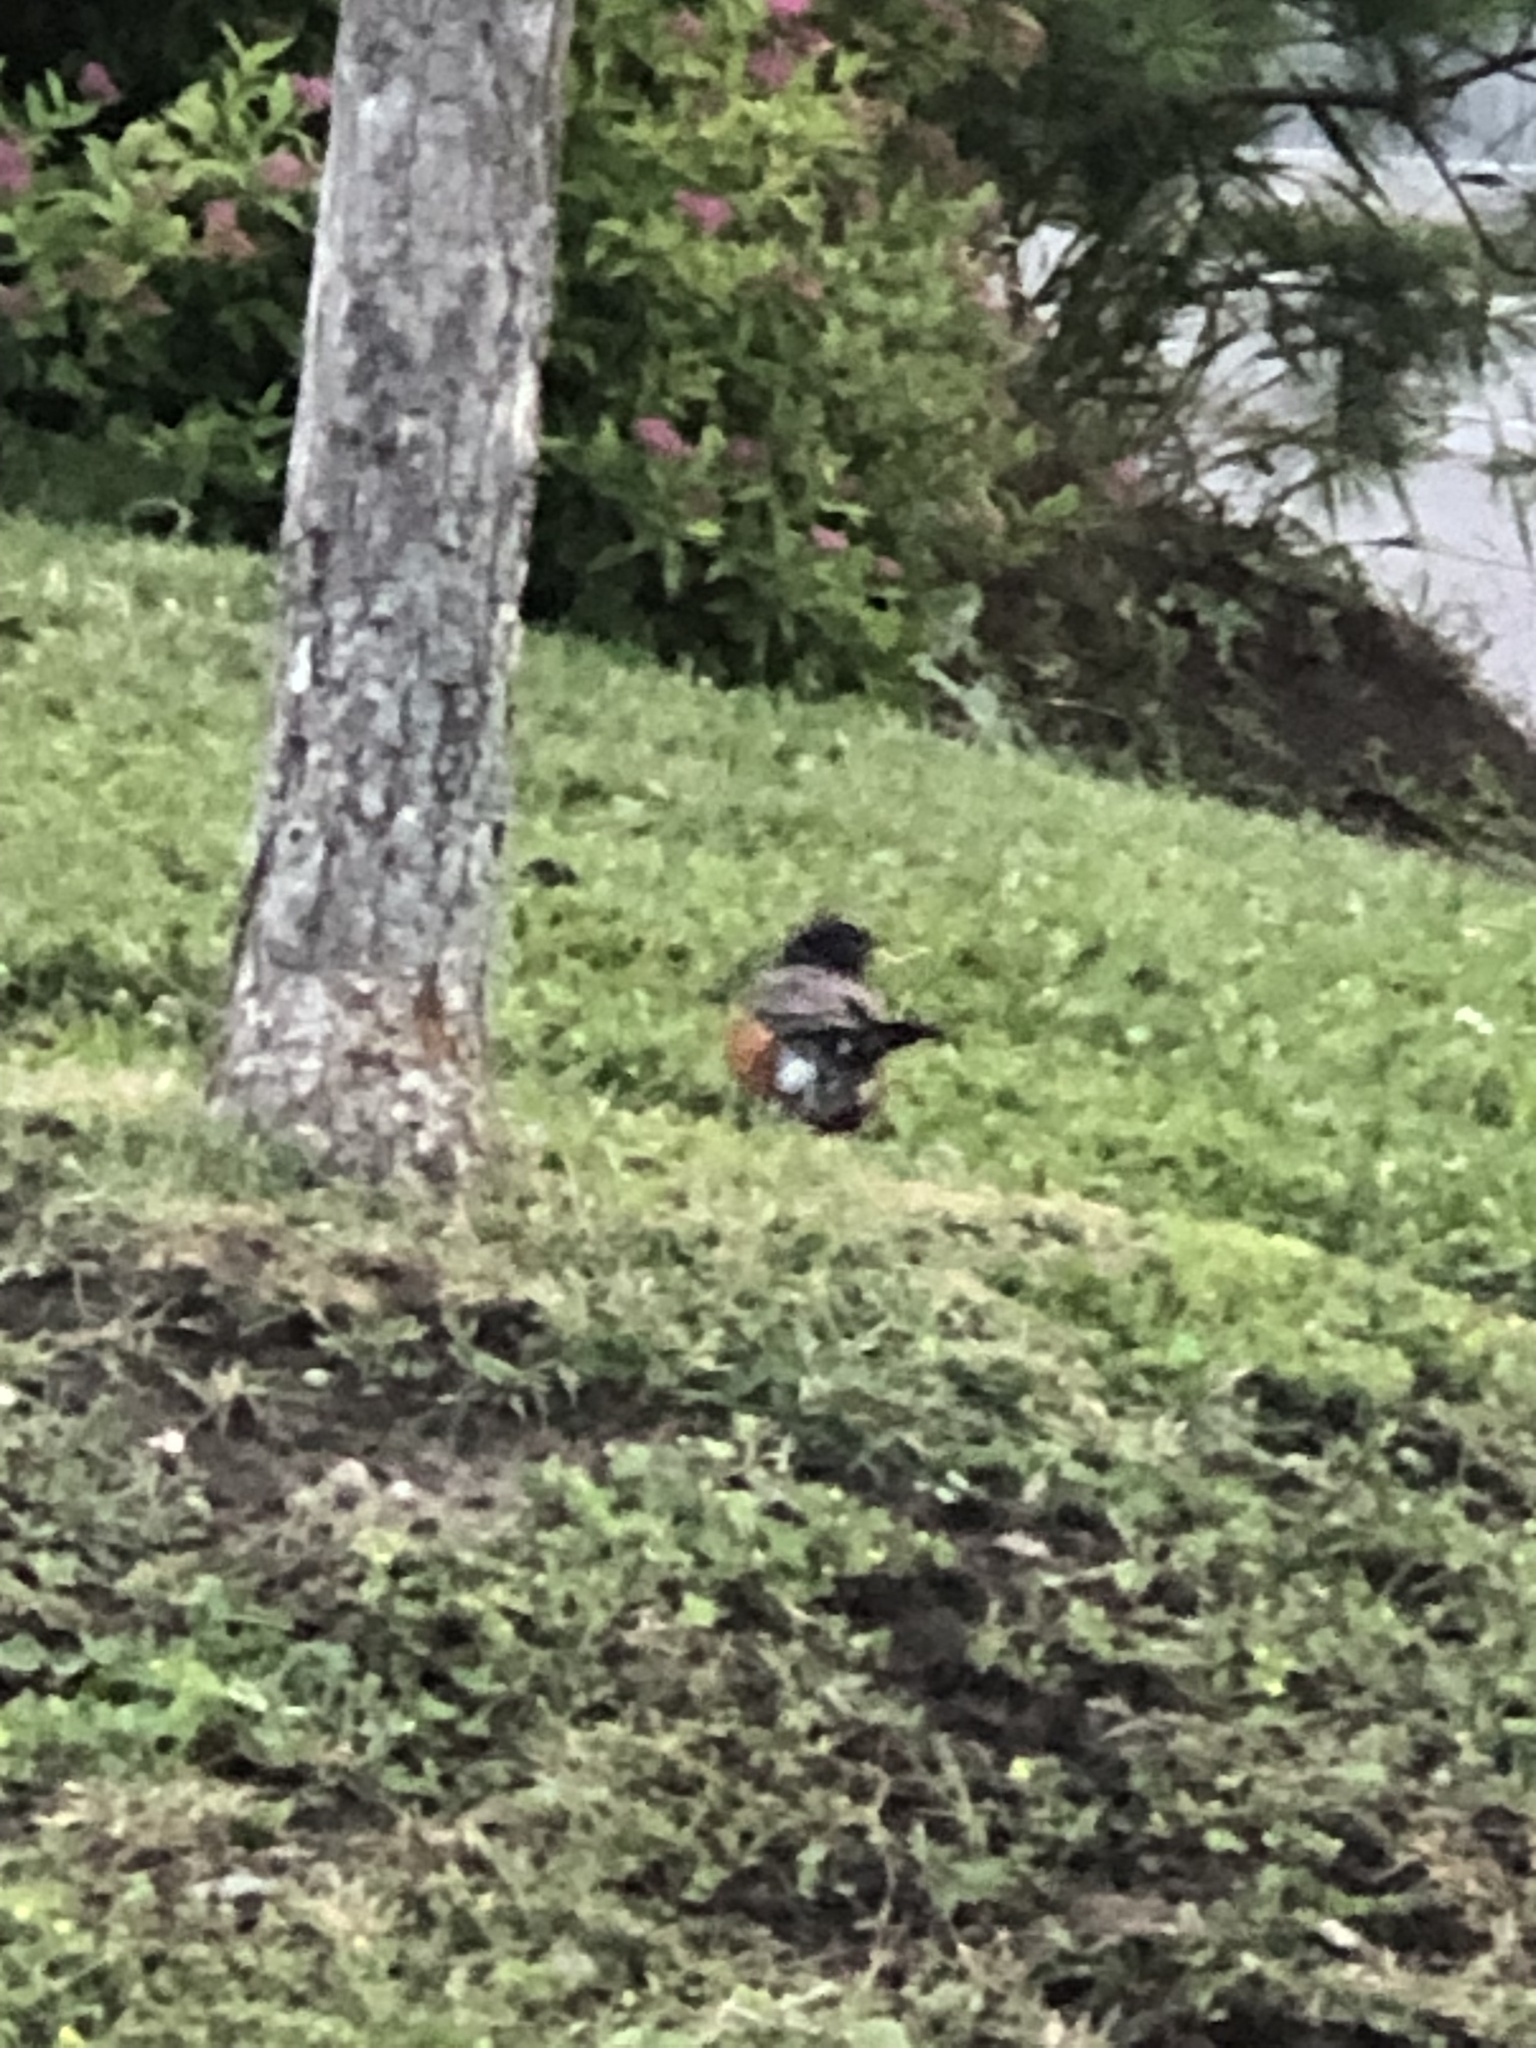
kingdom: Animalia
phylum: Chordata
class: Aves
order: Passeriformes
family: Turdidae
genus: Turdus
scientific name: Turdus migratorius
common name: American robin
